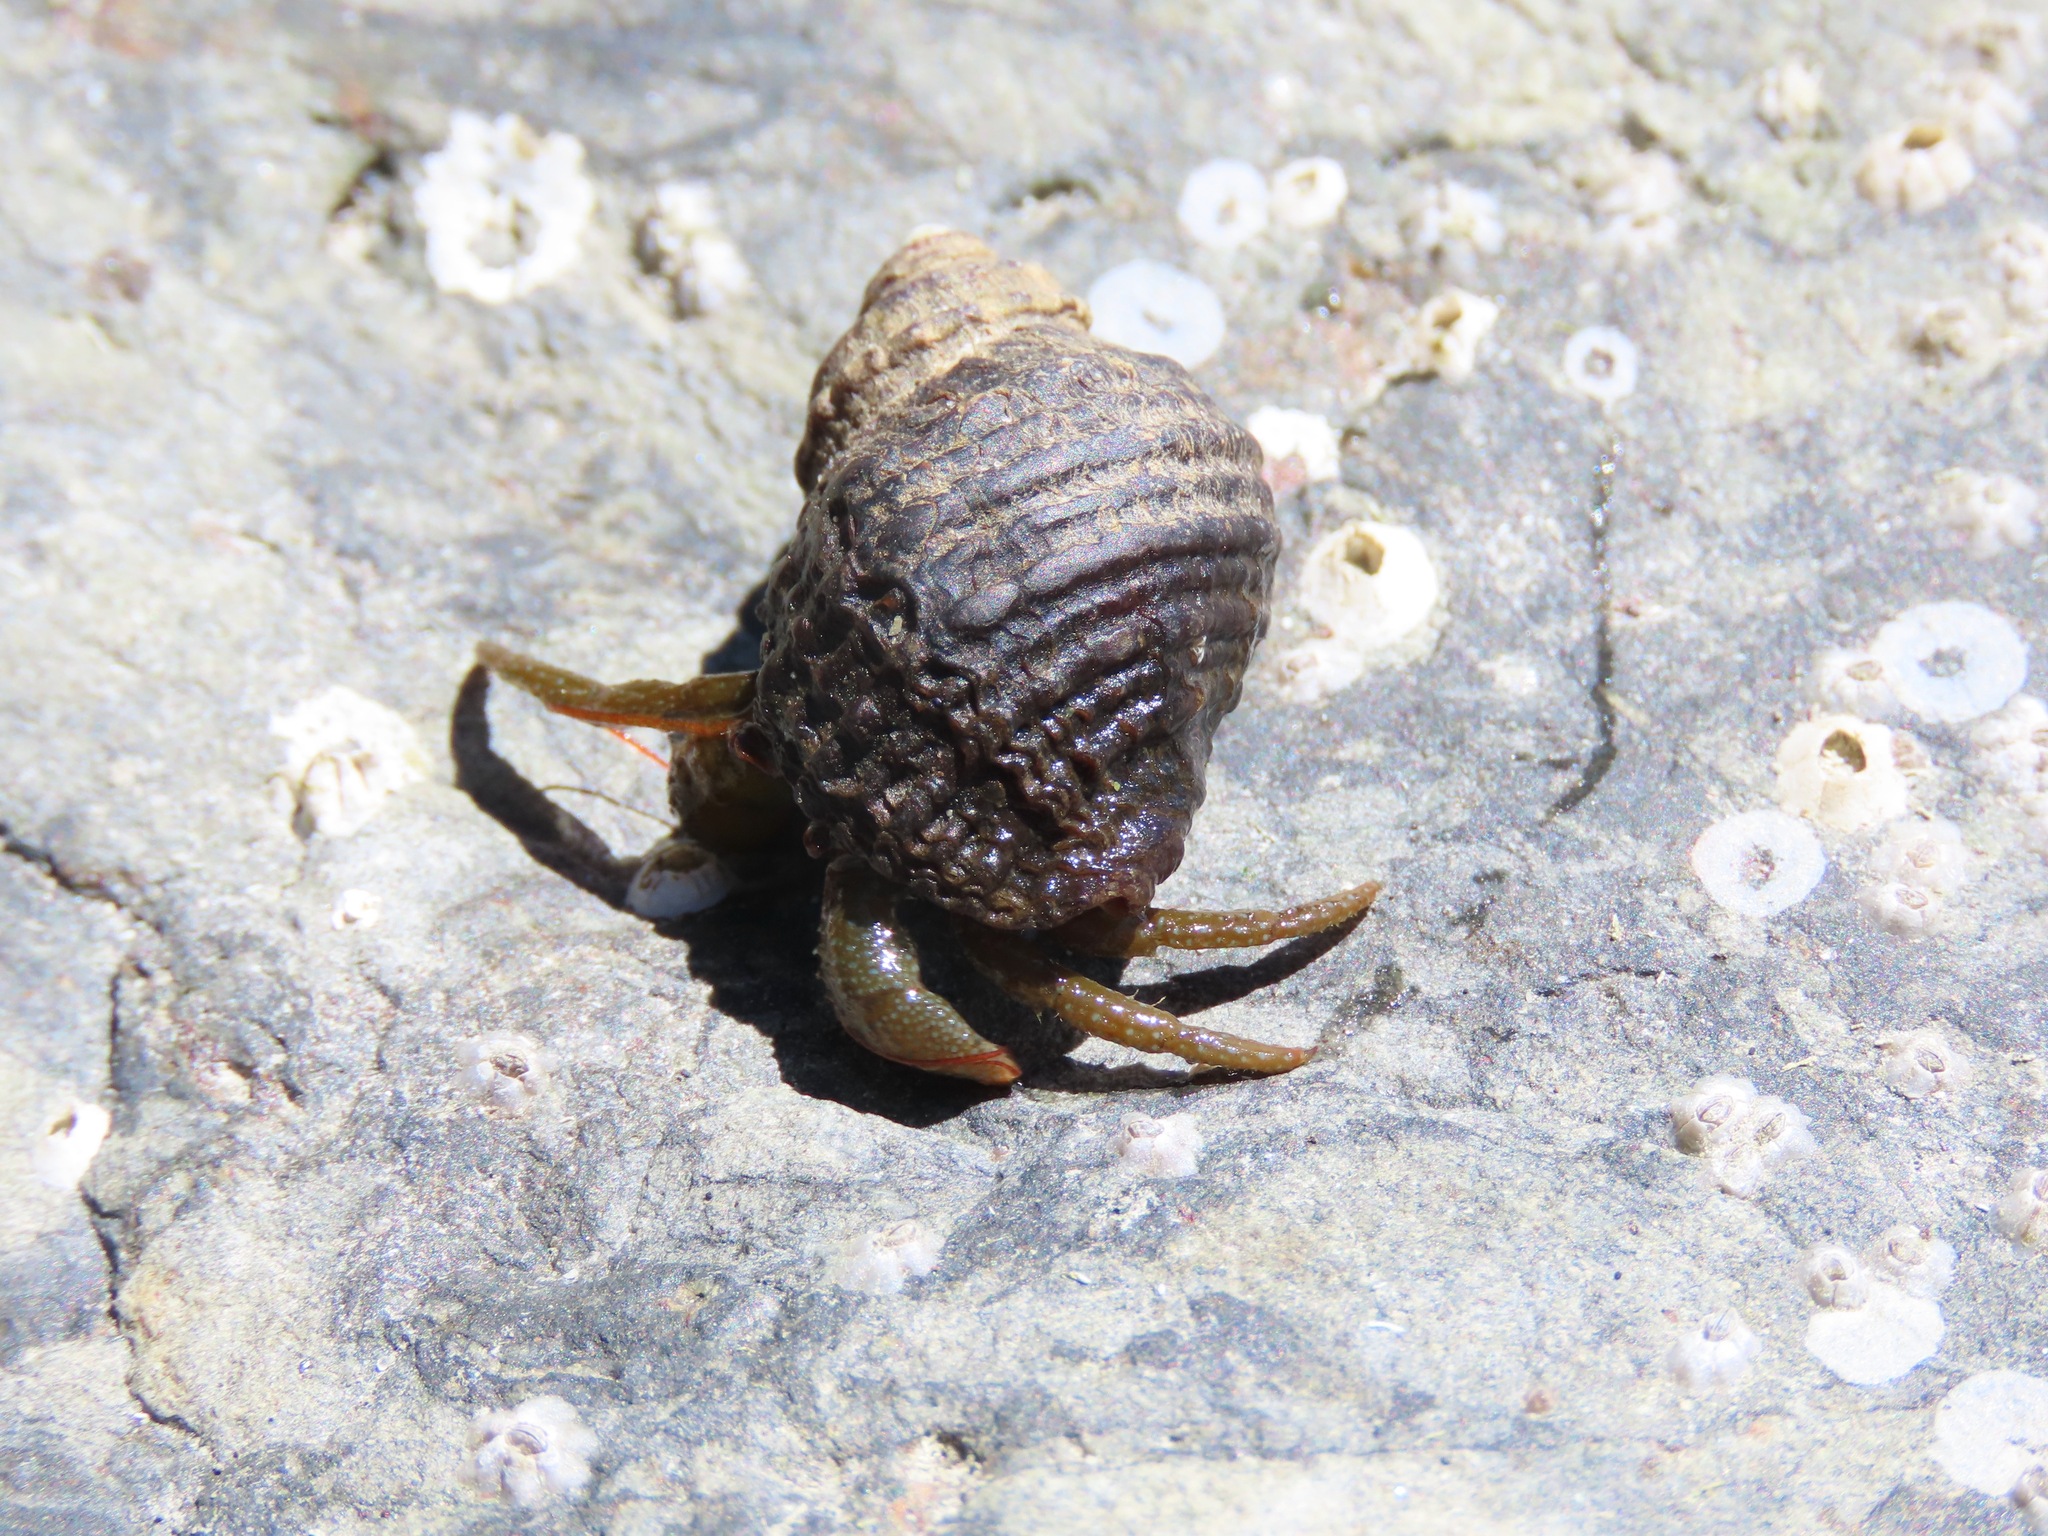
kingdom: Animalia
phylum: Arthropoda
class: Malacostraca
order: Decapoda
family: Paguridae
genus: Pagurus
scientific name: Pagurus granosimanus
